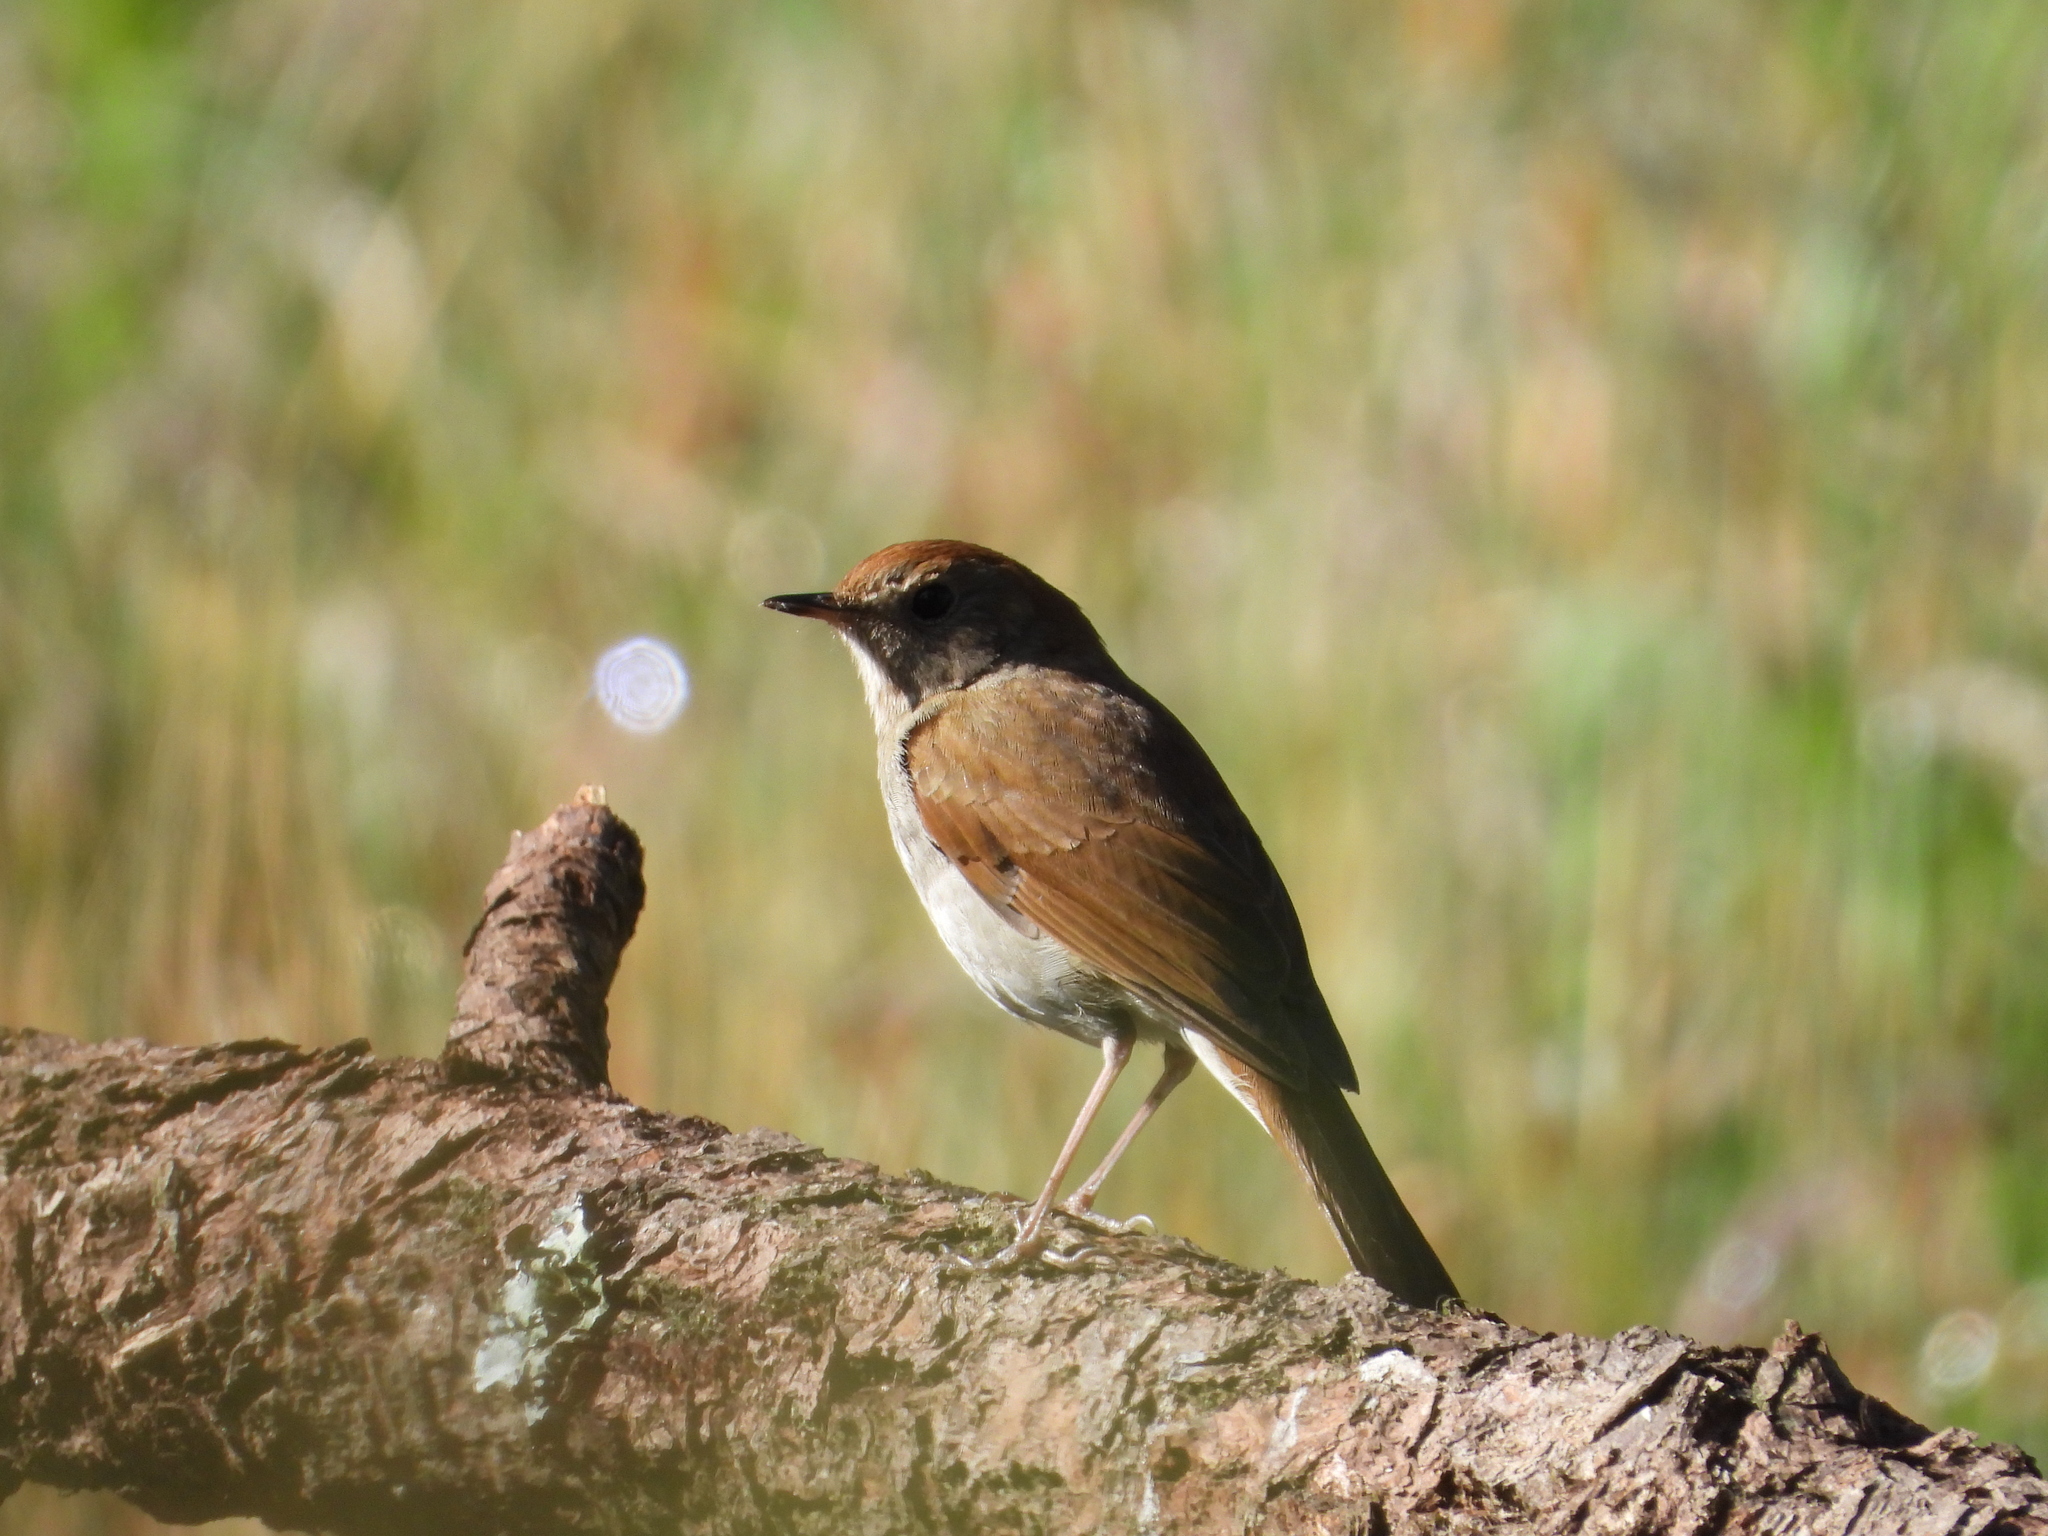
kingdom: Animalia
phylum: Chordata
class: Aves
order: Passeriformes
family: Turdidae
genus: Catharus
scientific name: Catharus occidentalis
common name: Russet nightingale-thrush
